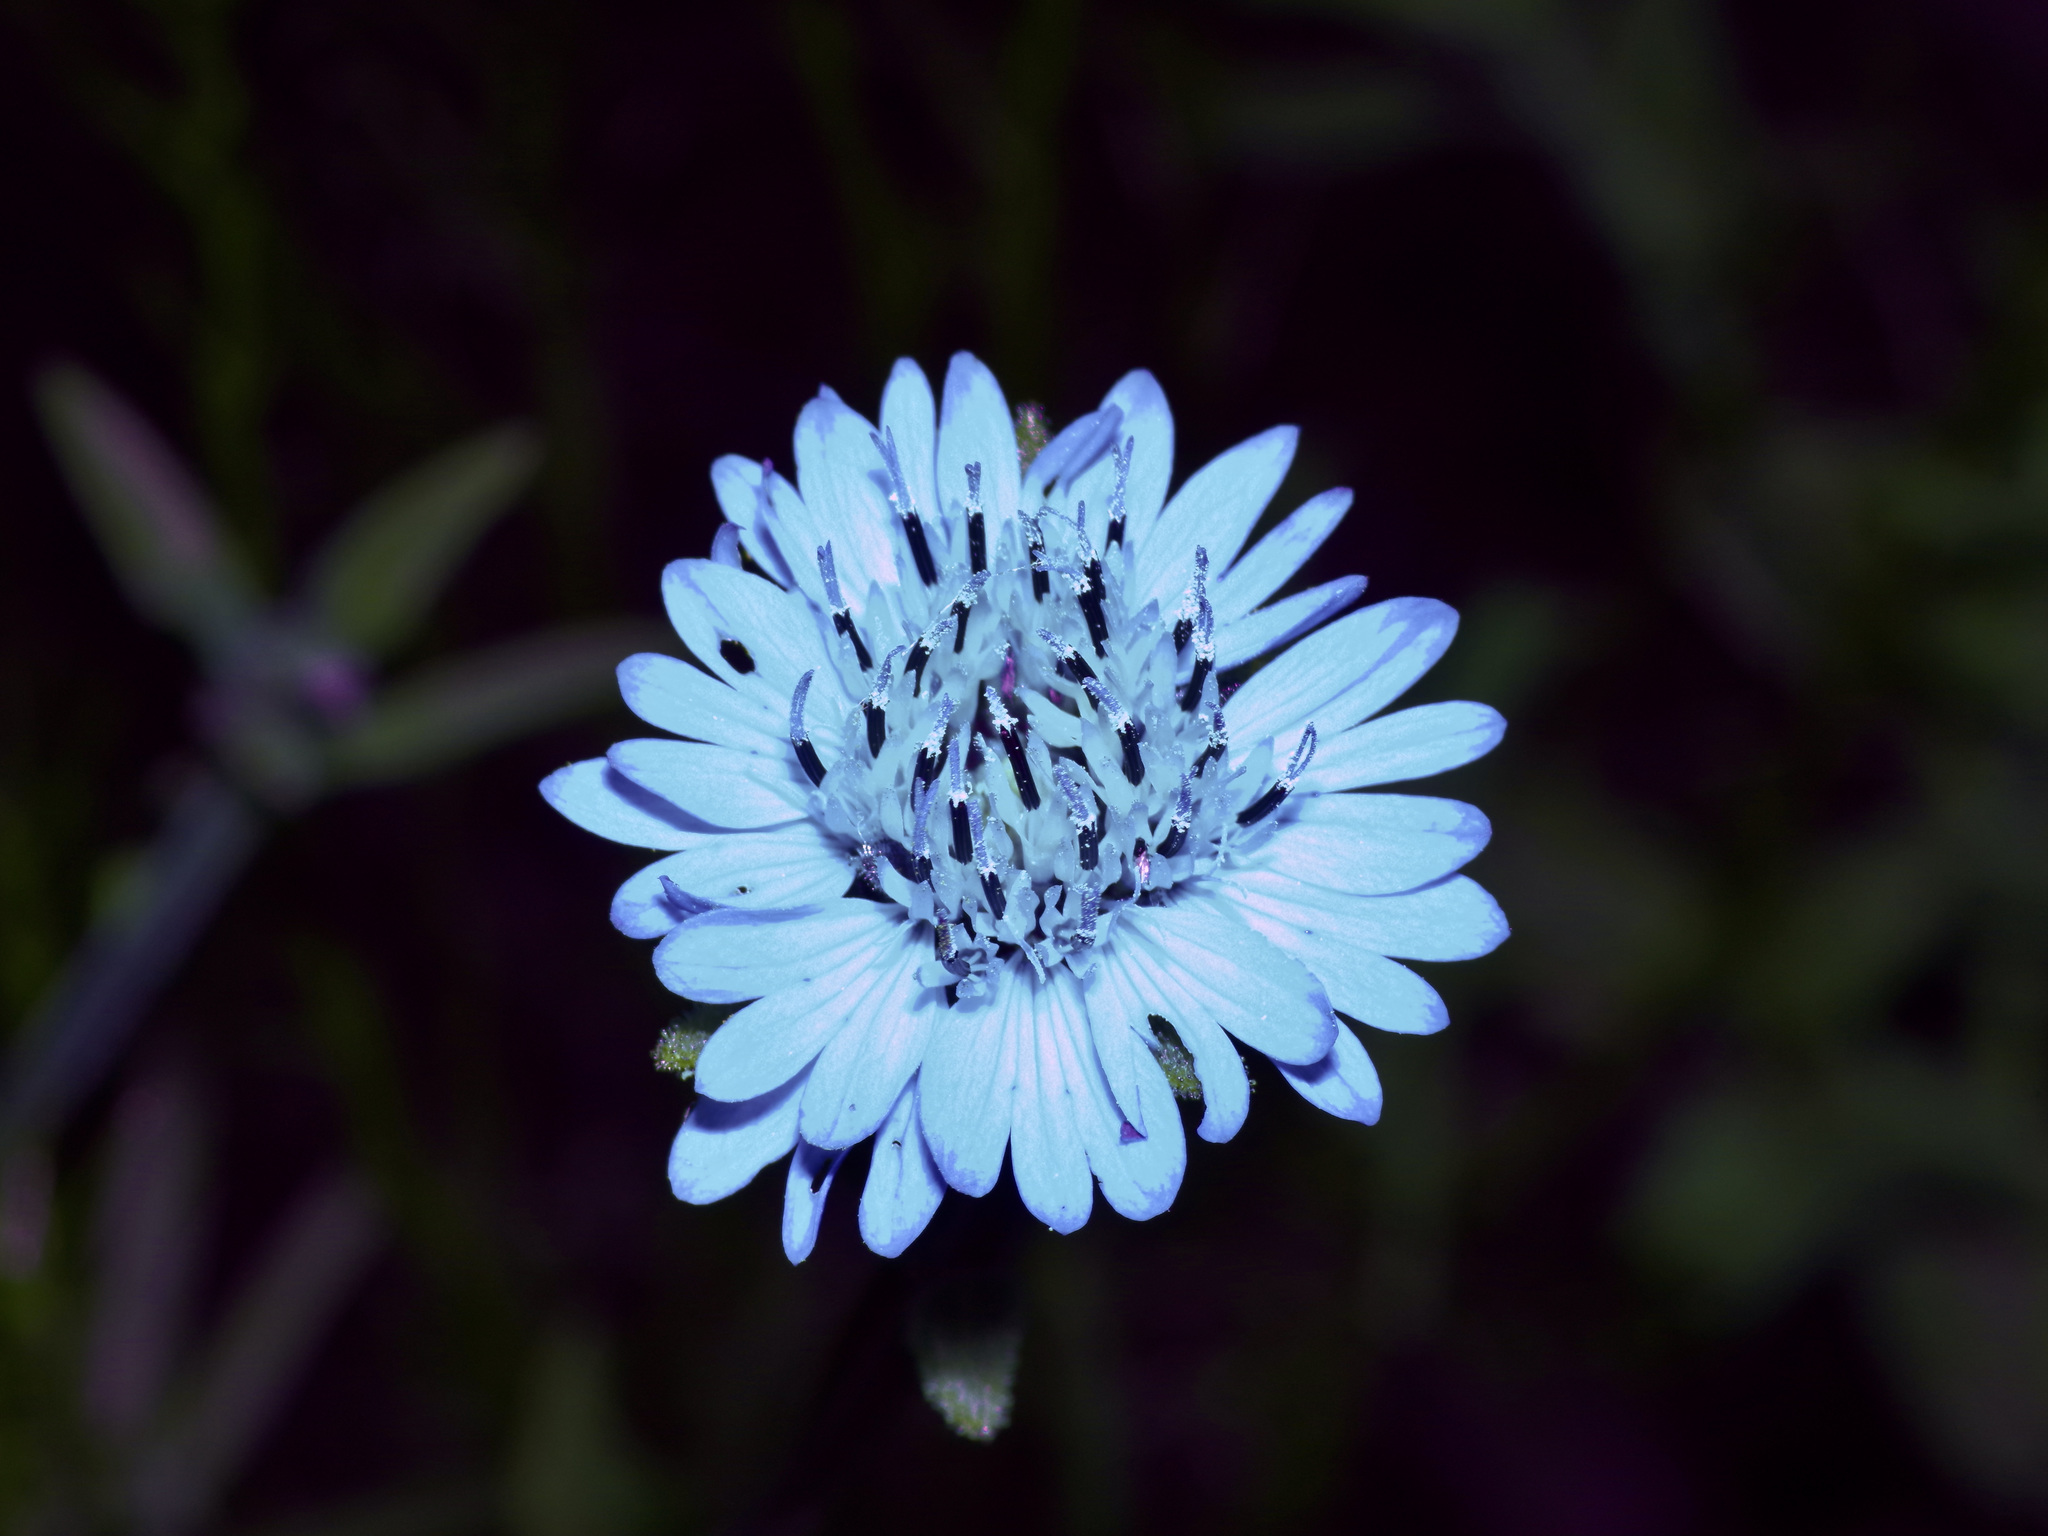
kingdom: Plantae
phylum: Tracheophyta
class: Magnoliopsida
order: Asterales
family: Asteraceae
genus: Palafoxia
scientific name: Palafoxia hookeriana
